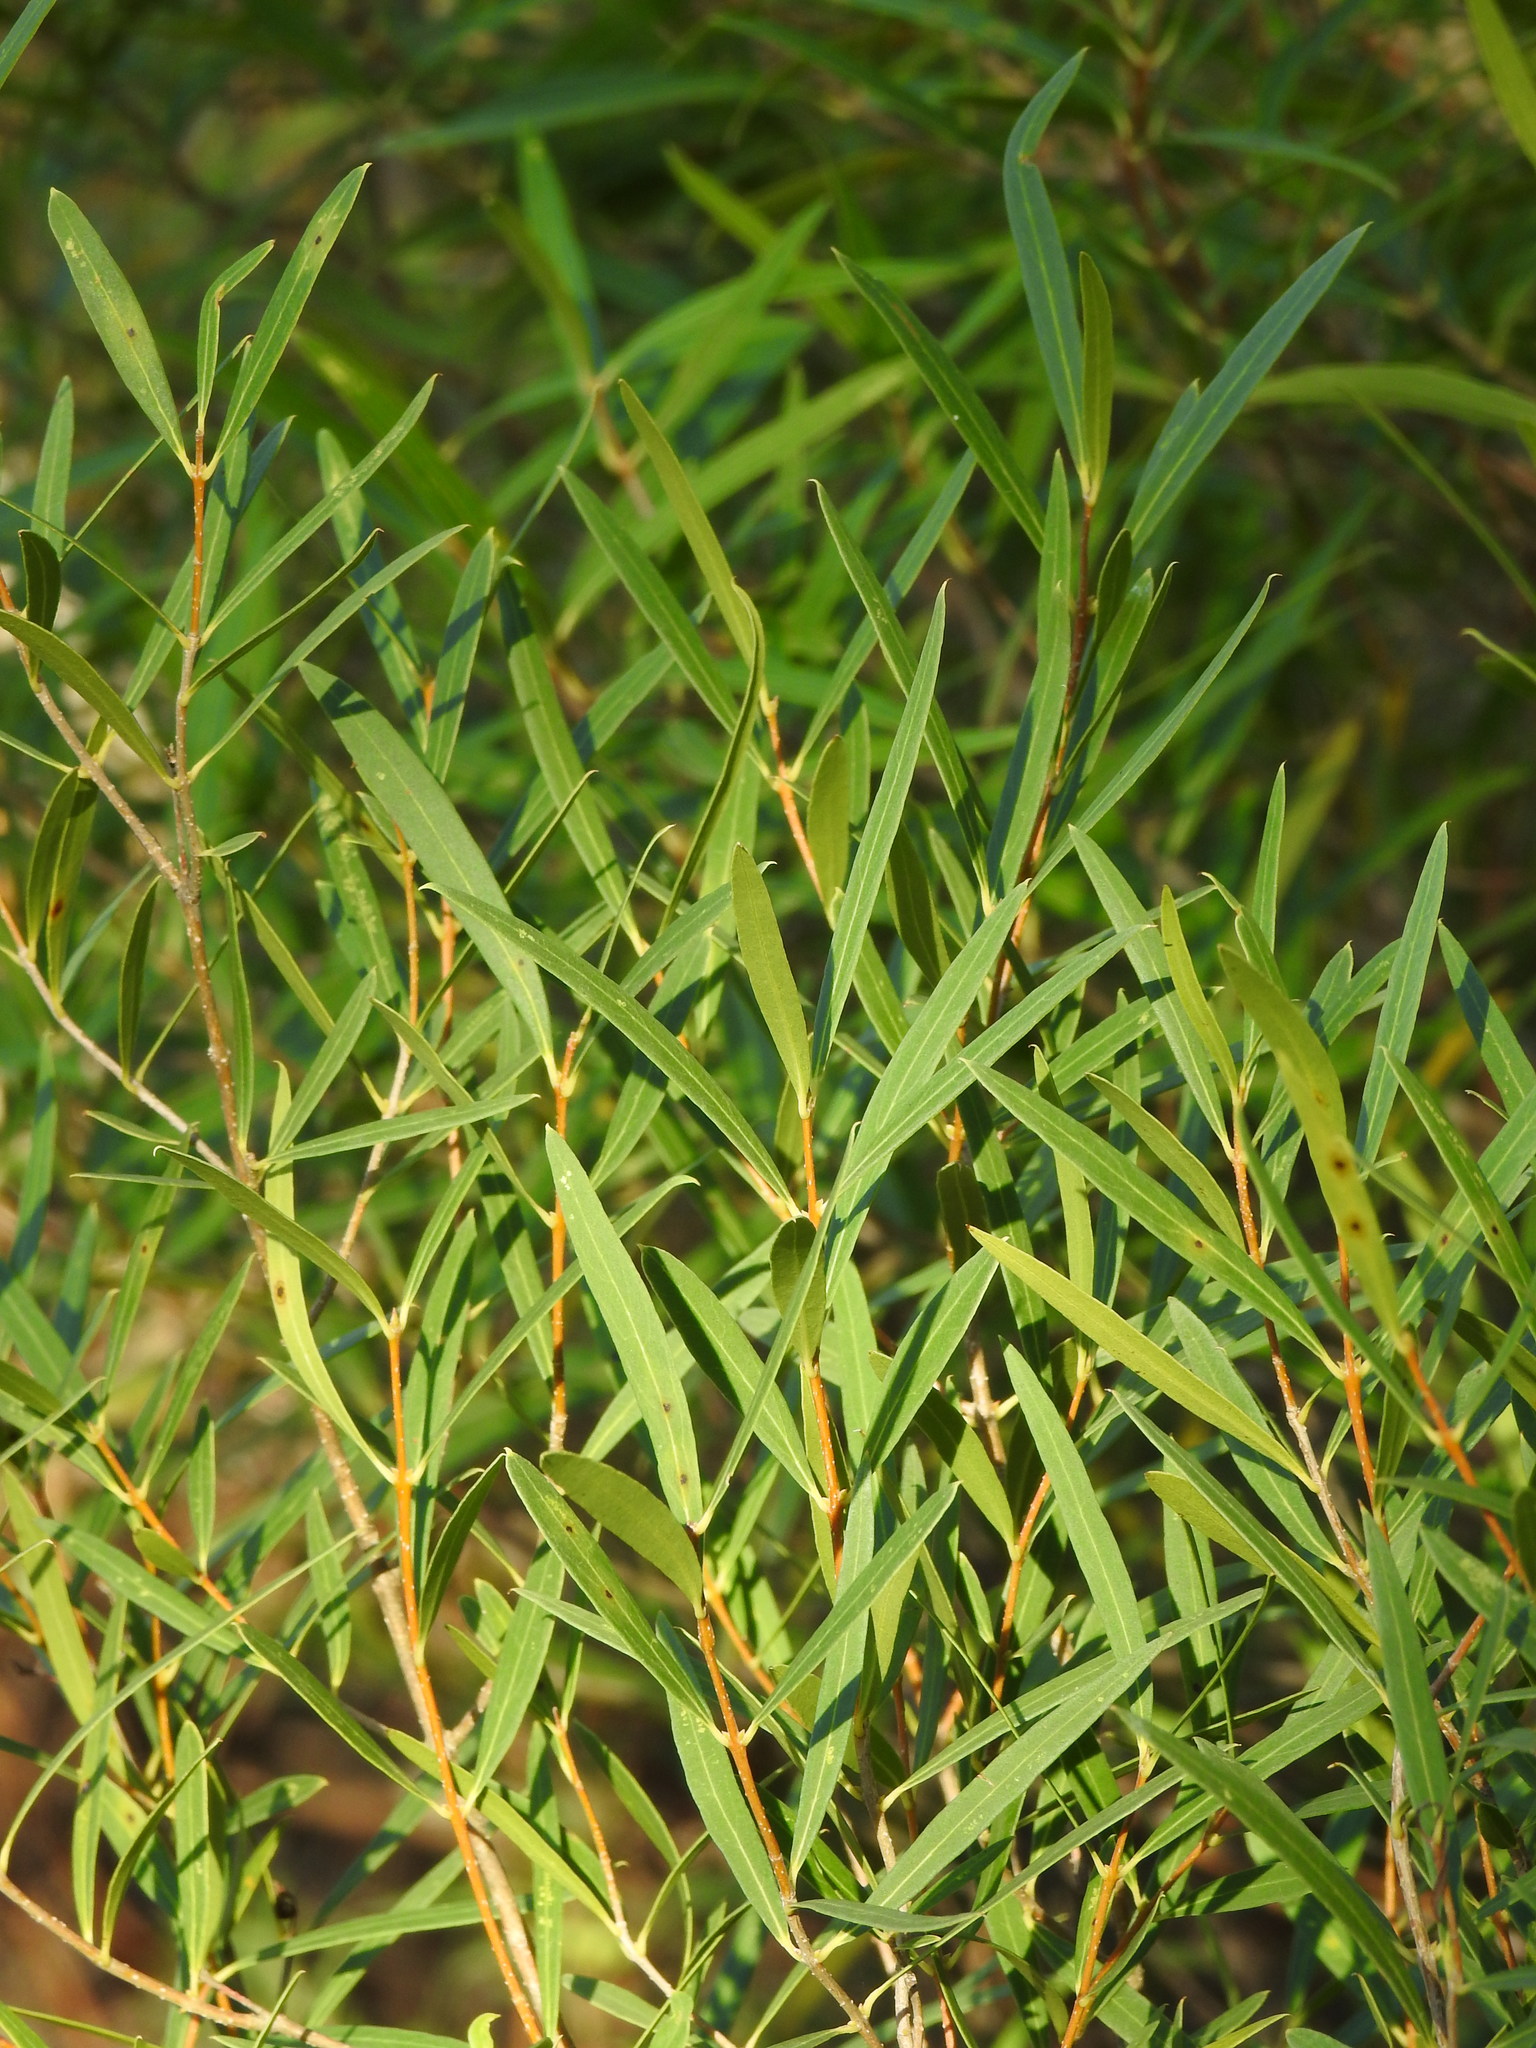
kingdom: Plantae
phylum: Tracheophyta
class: Magnoliopsida
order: Lamiales
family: Oleaceae
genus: Phillyrea
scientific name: Phillyrea angustifolia
